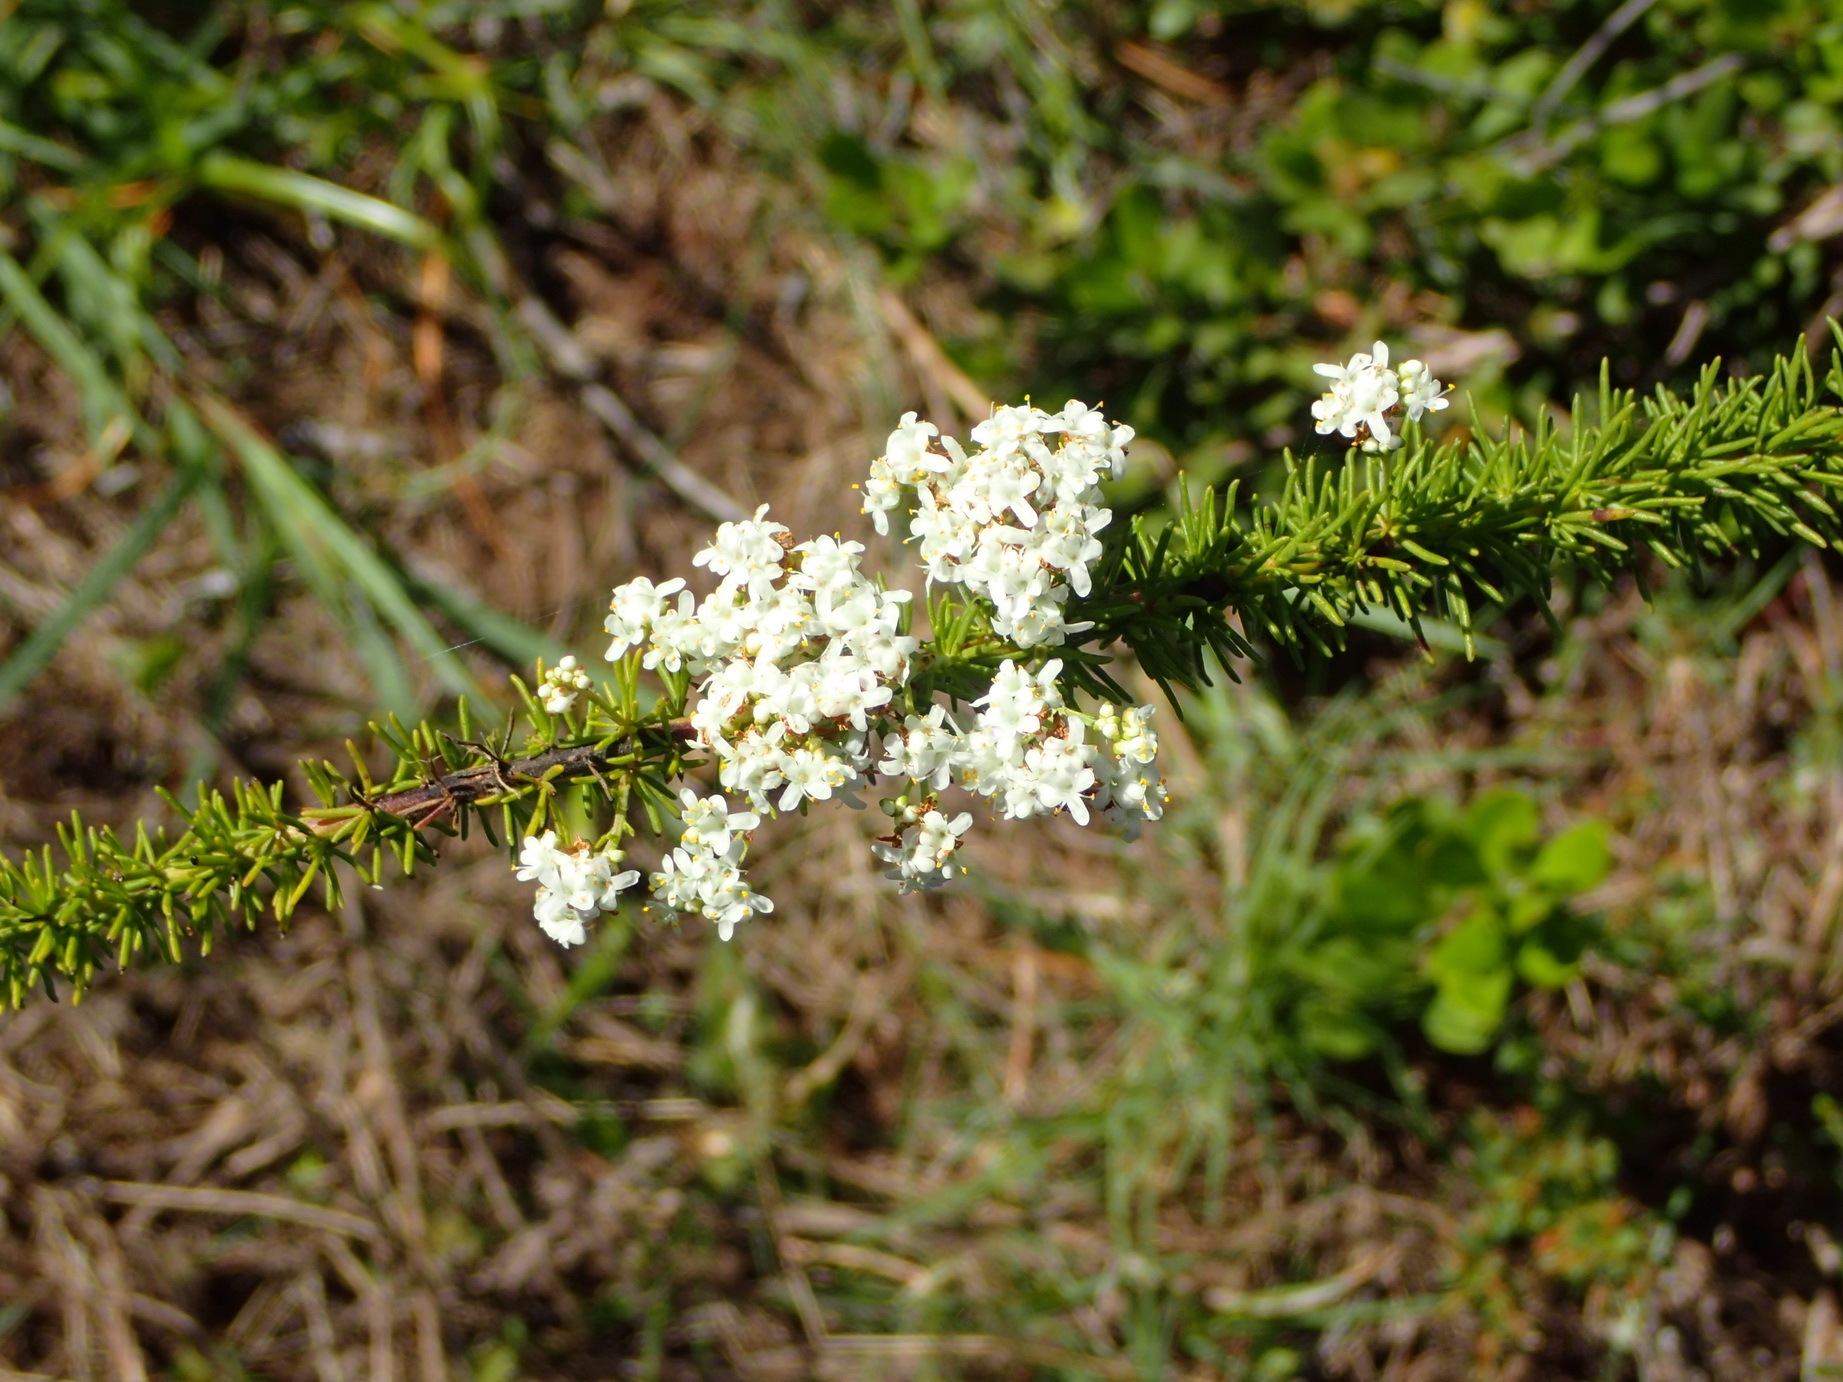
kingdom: Plantae
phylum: Tracheophyta
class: Magnoliopsida
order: Lamiales
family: Scrophulariaceae
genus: Selago
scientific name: Selago corymbosa
